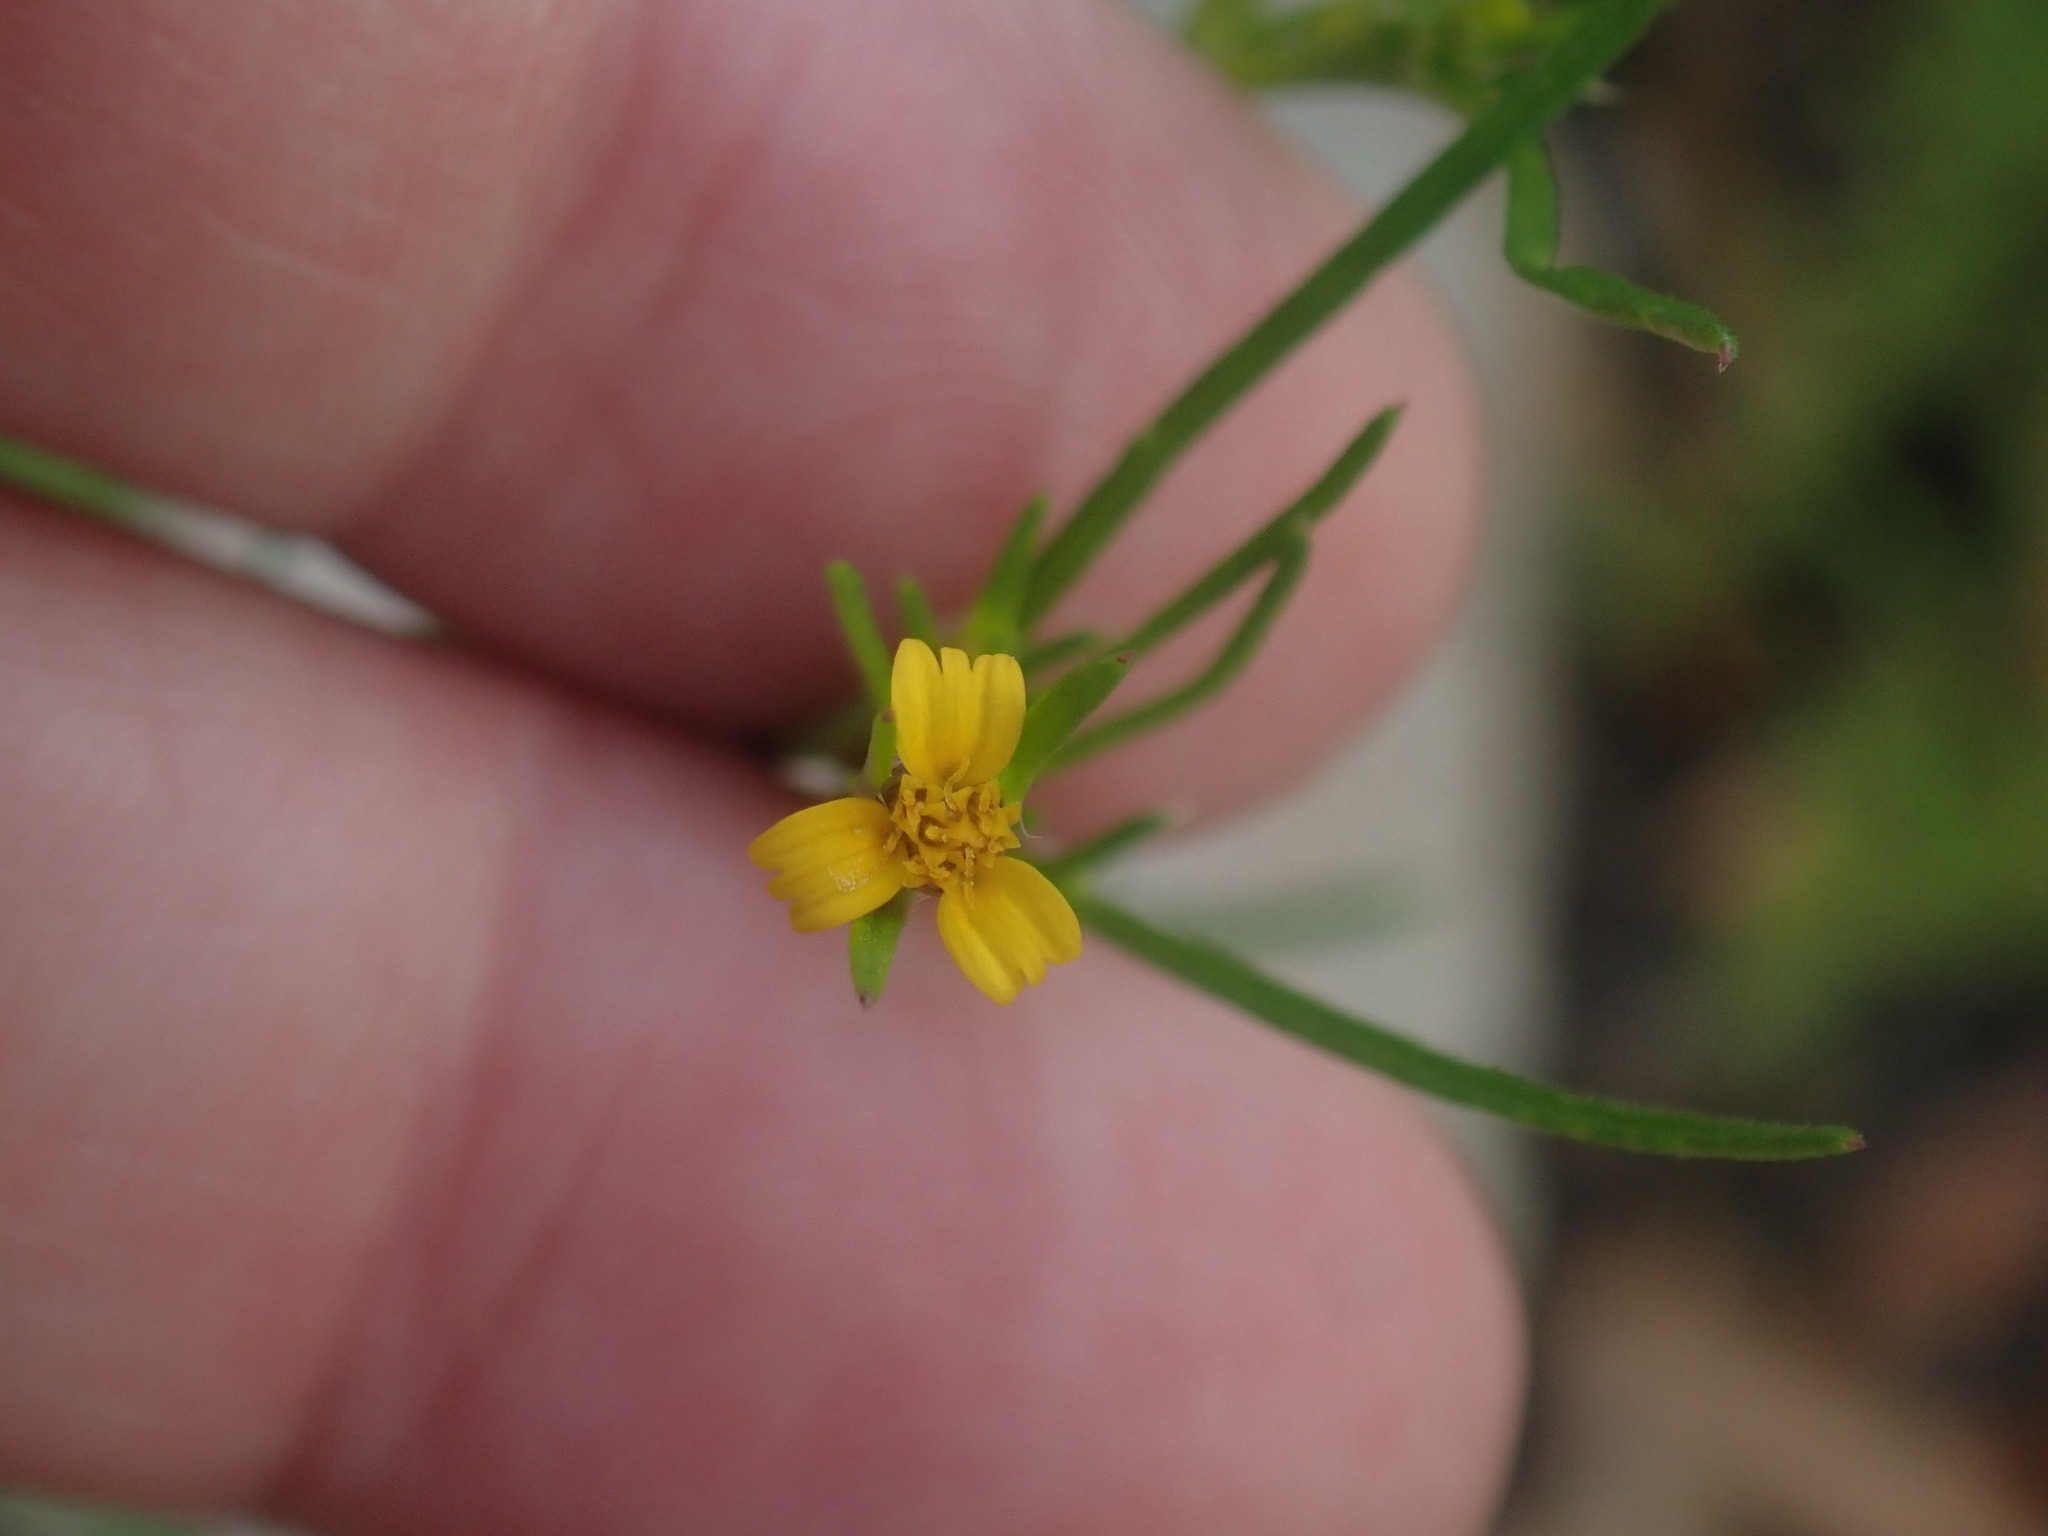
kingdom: Plantae
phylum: Tracheophyta
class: Magnoliopsida
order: Asterales
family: Asteraceae
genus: Heterosperma
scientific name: Heterosperma pinnatum
